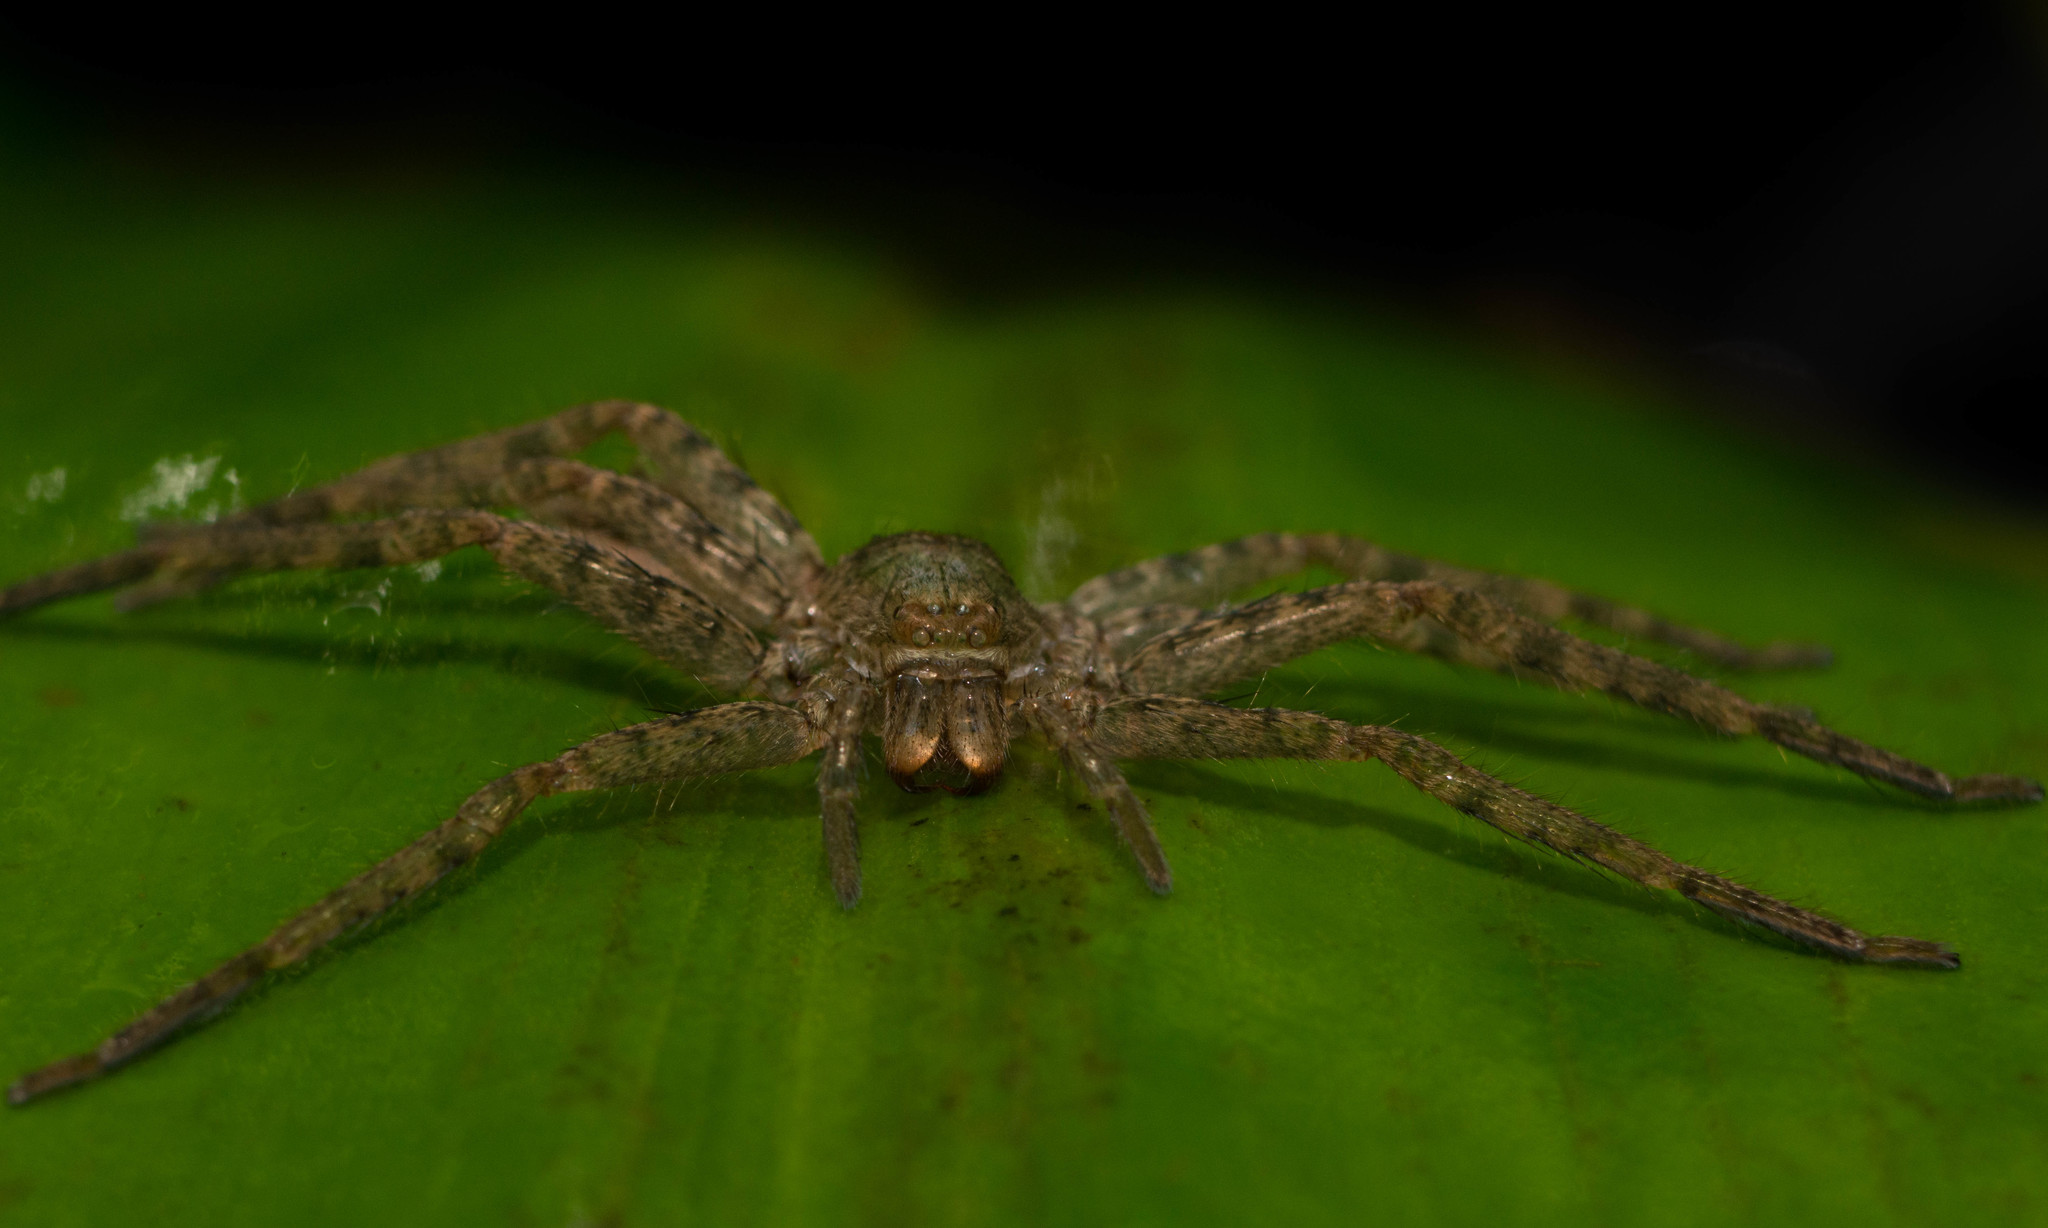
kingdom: Animalia
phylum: Arthropoda
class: Arachnida
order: Araneae
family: Sparassidae
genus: Heteropoda
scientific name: Heteropoda venatoria
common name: Huntsman spider
